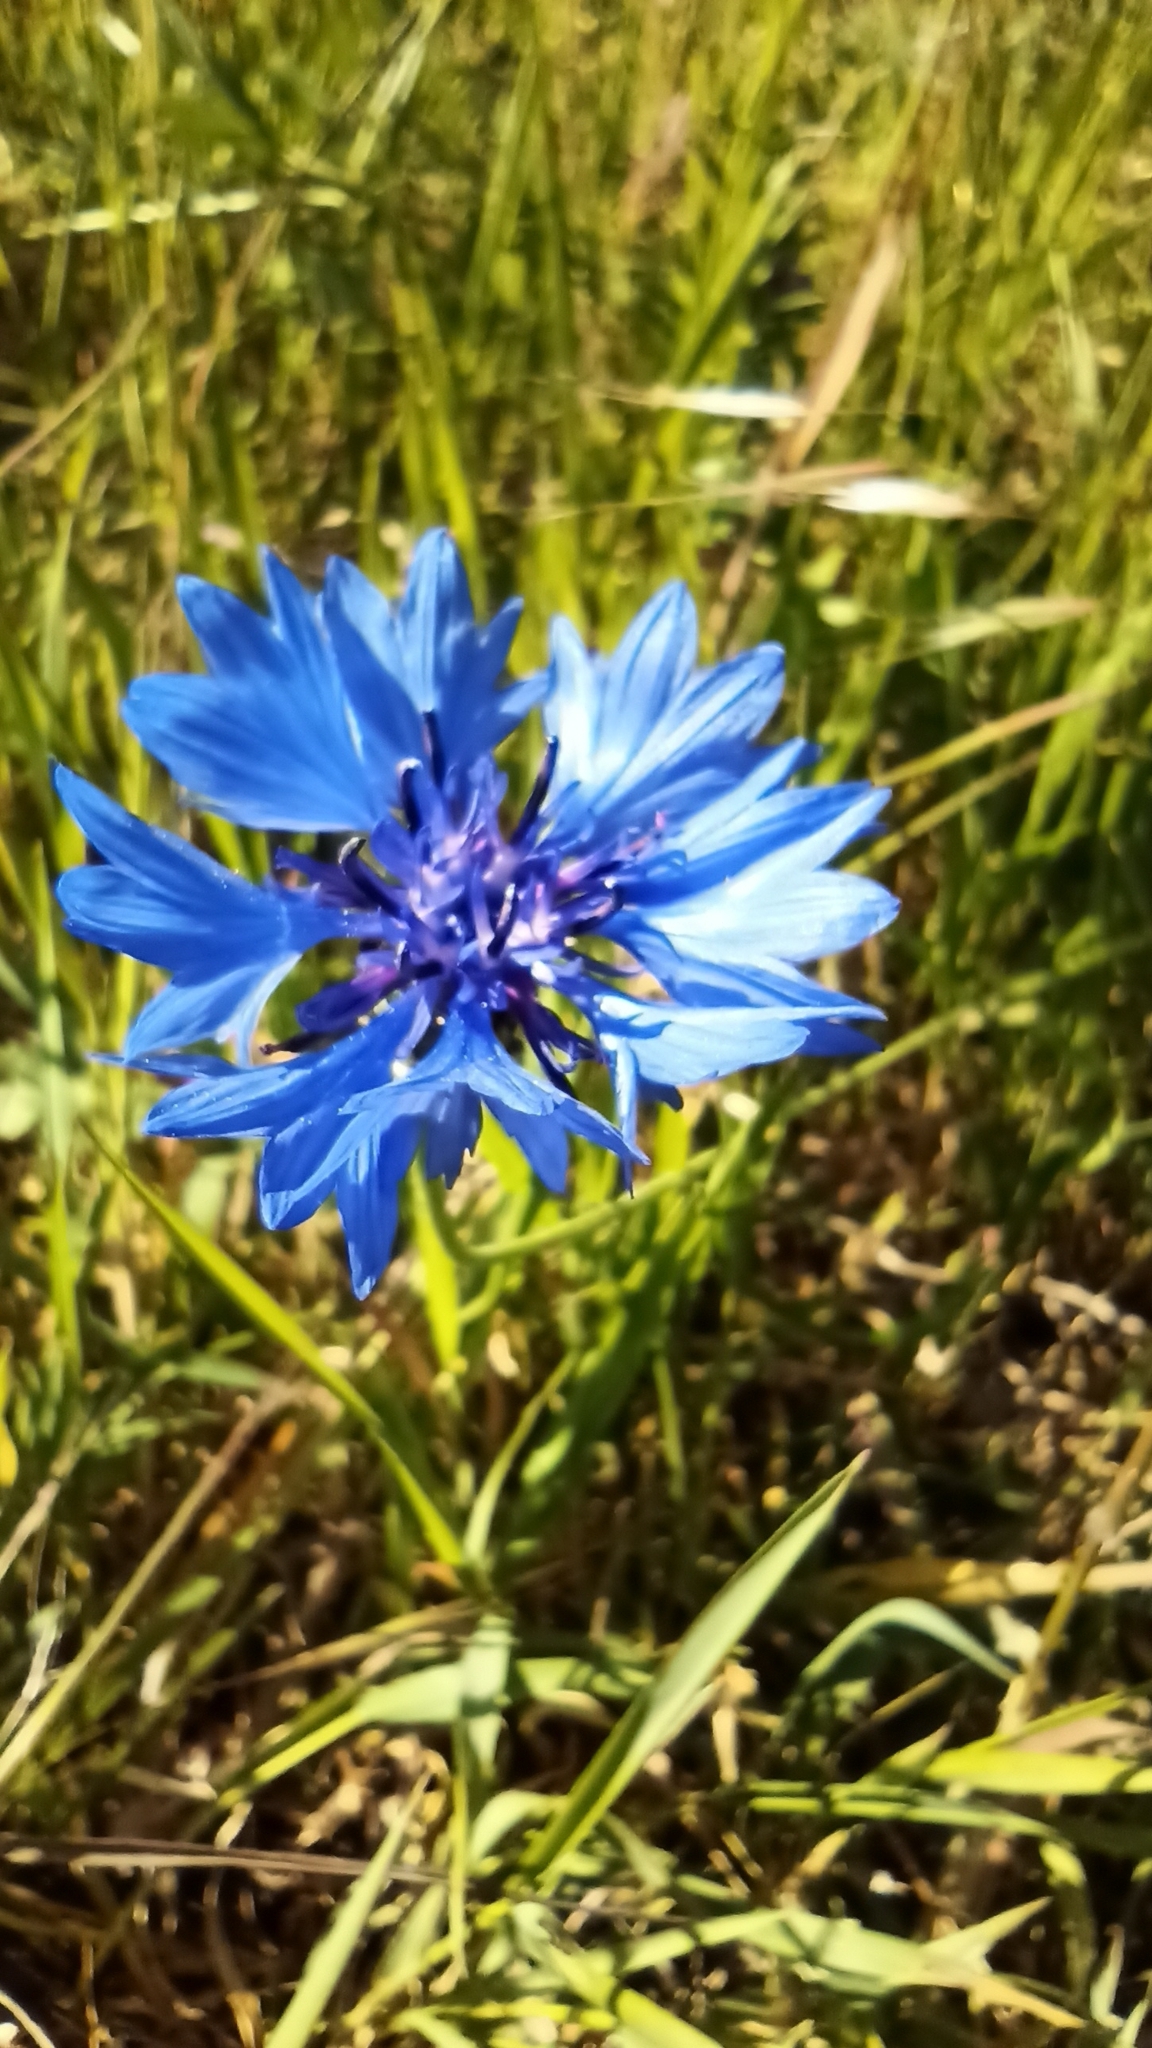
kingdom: Plantae
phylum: Tracheophyta
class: Magnoliopsida
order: Asterales
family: Asteraceae
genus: Centaurea
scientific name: Centaurea cyanus
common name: Cornflower
